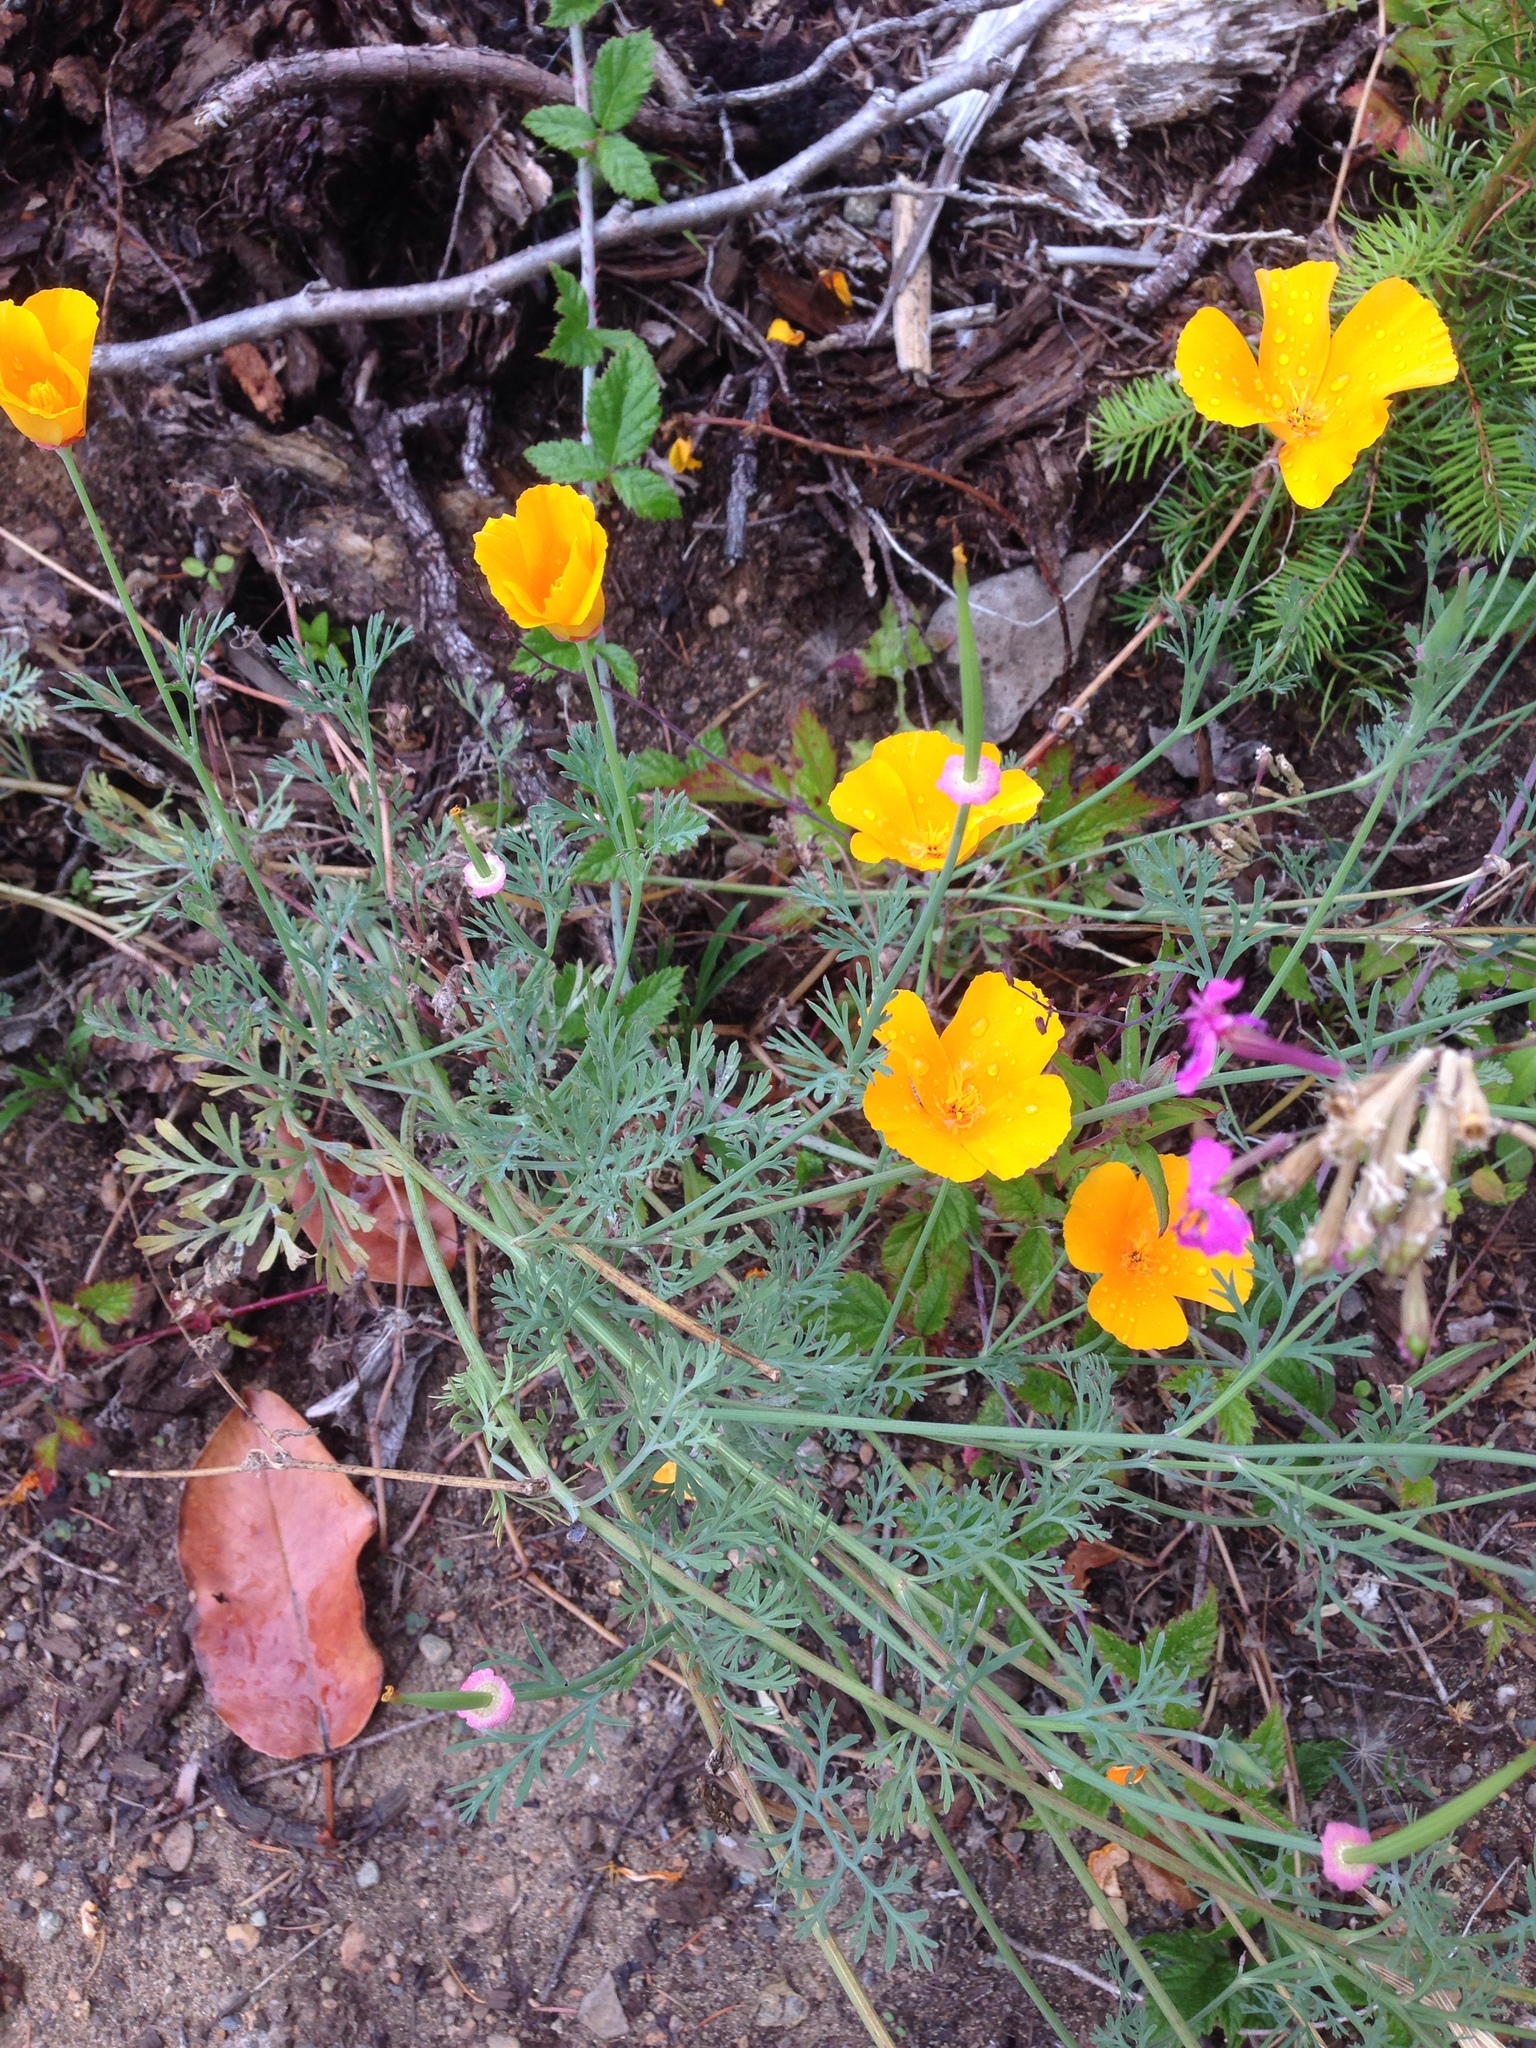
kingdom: Plantae
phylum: Tracheophyta
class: Magnoliopsida
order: Ranunculales
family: Papaveraceae
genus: Eschscholzia
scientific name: Eschscholzia californica
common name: California poppy
